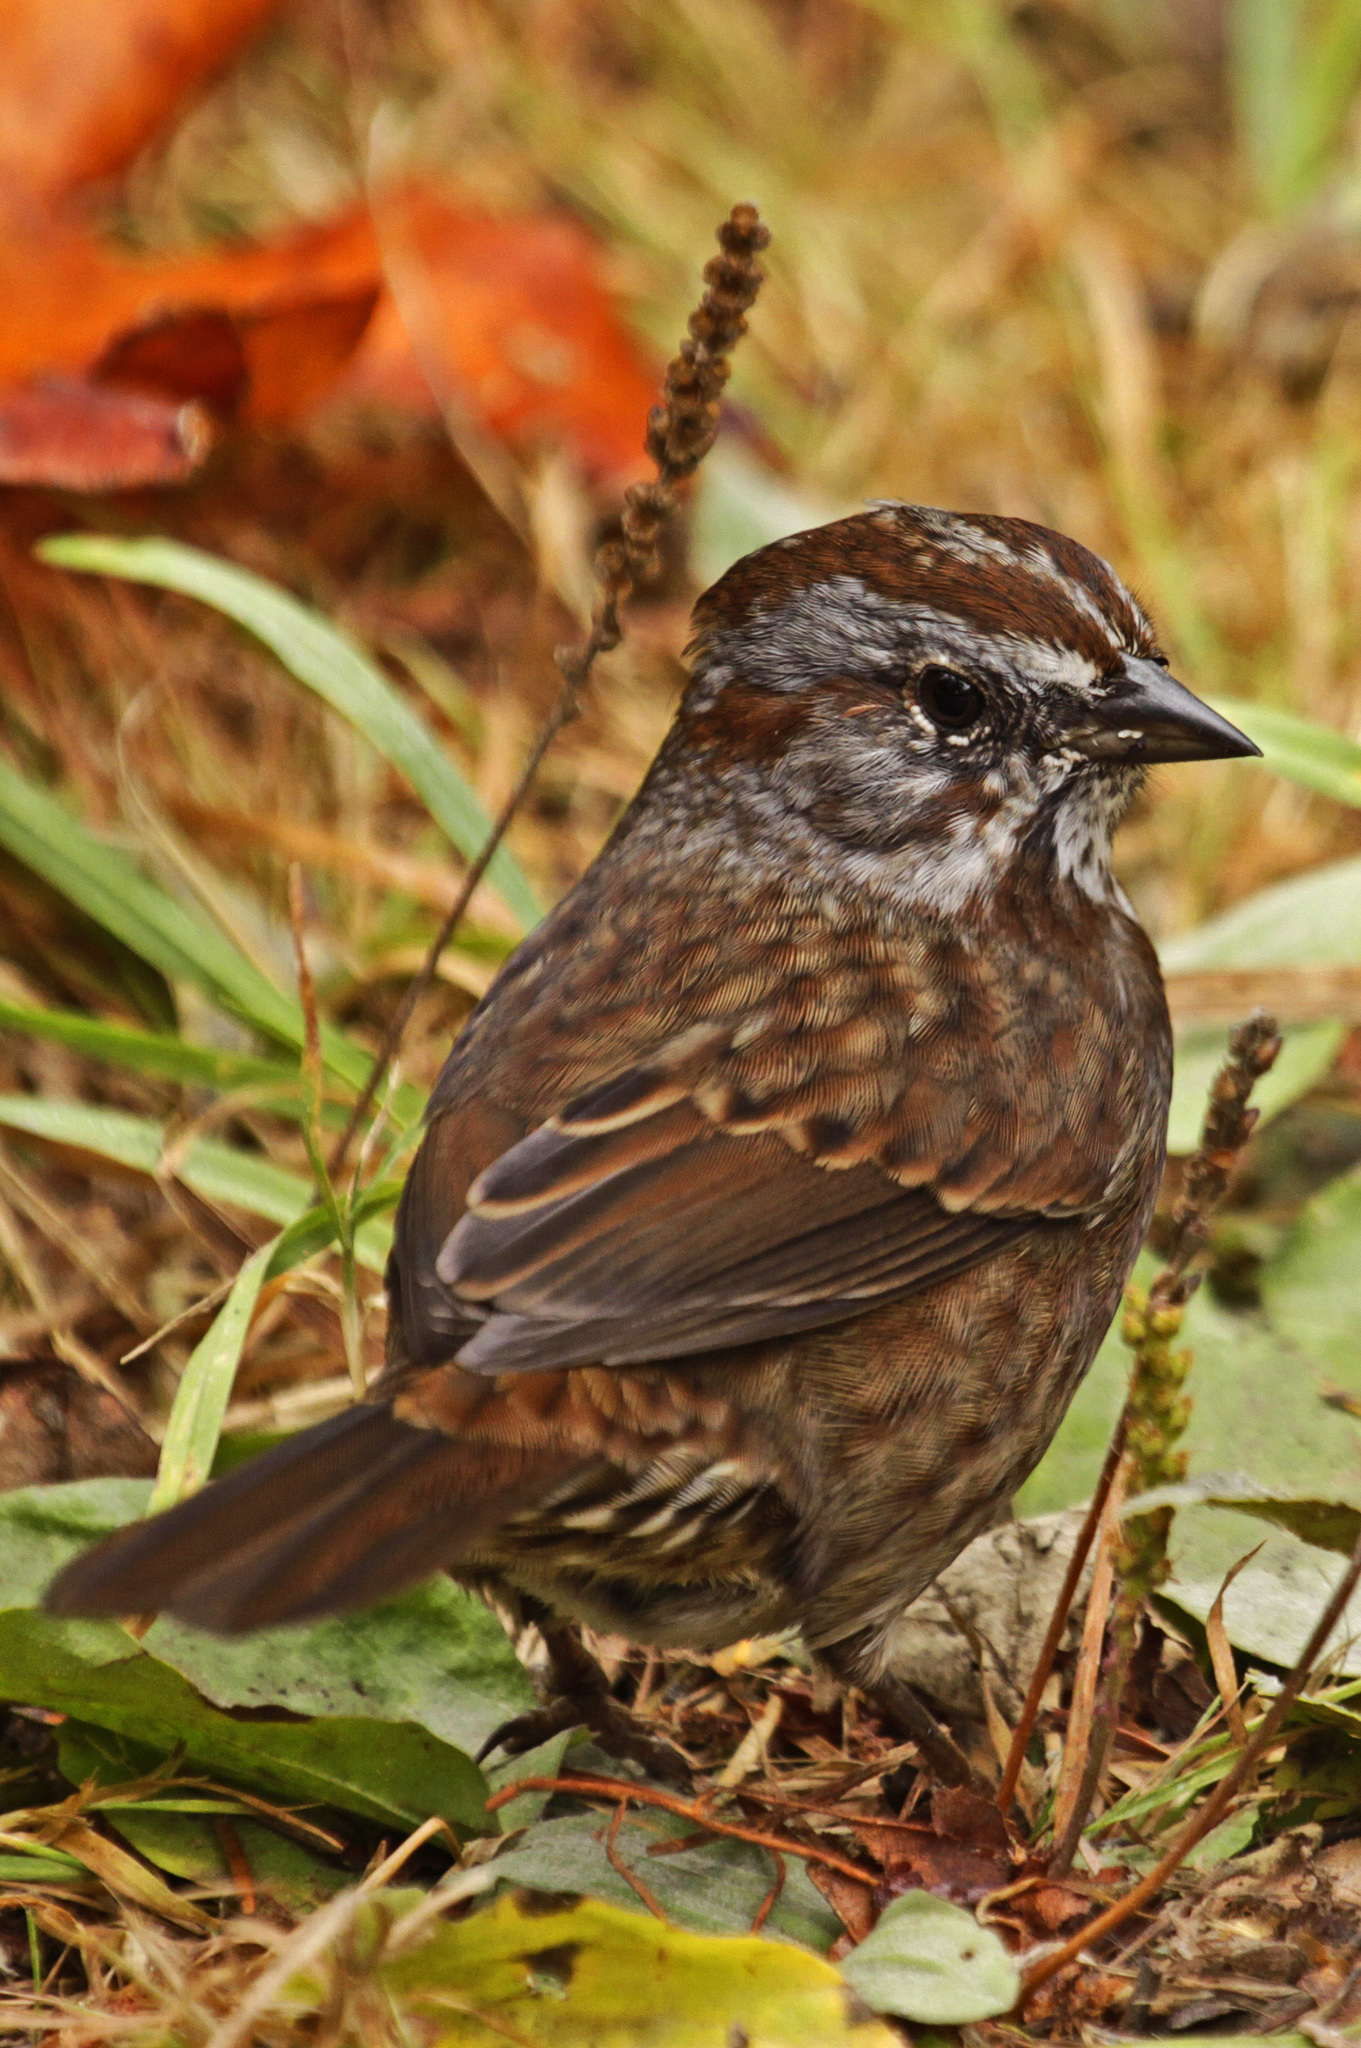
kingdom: Animalia
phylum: Chordata
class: Aves
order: Passeriformes
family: Passerellidae
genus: Melospiza
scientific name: Melospiza melodia
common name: Song sparrow
